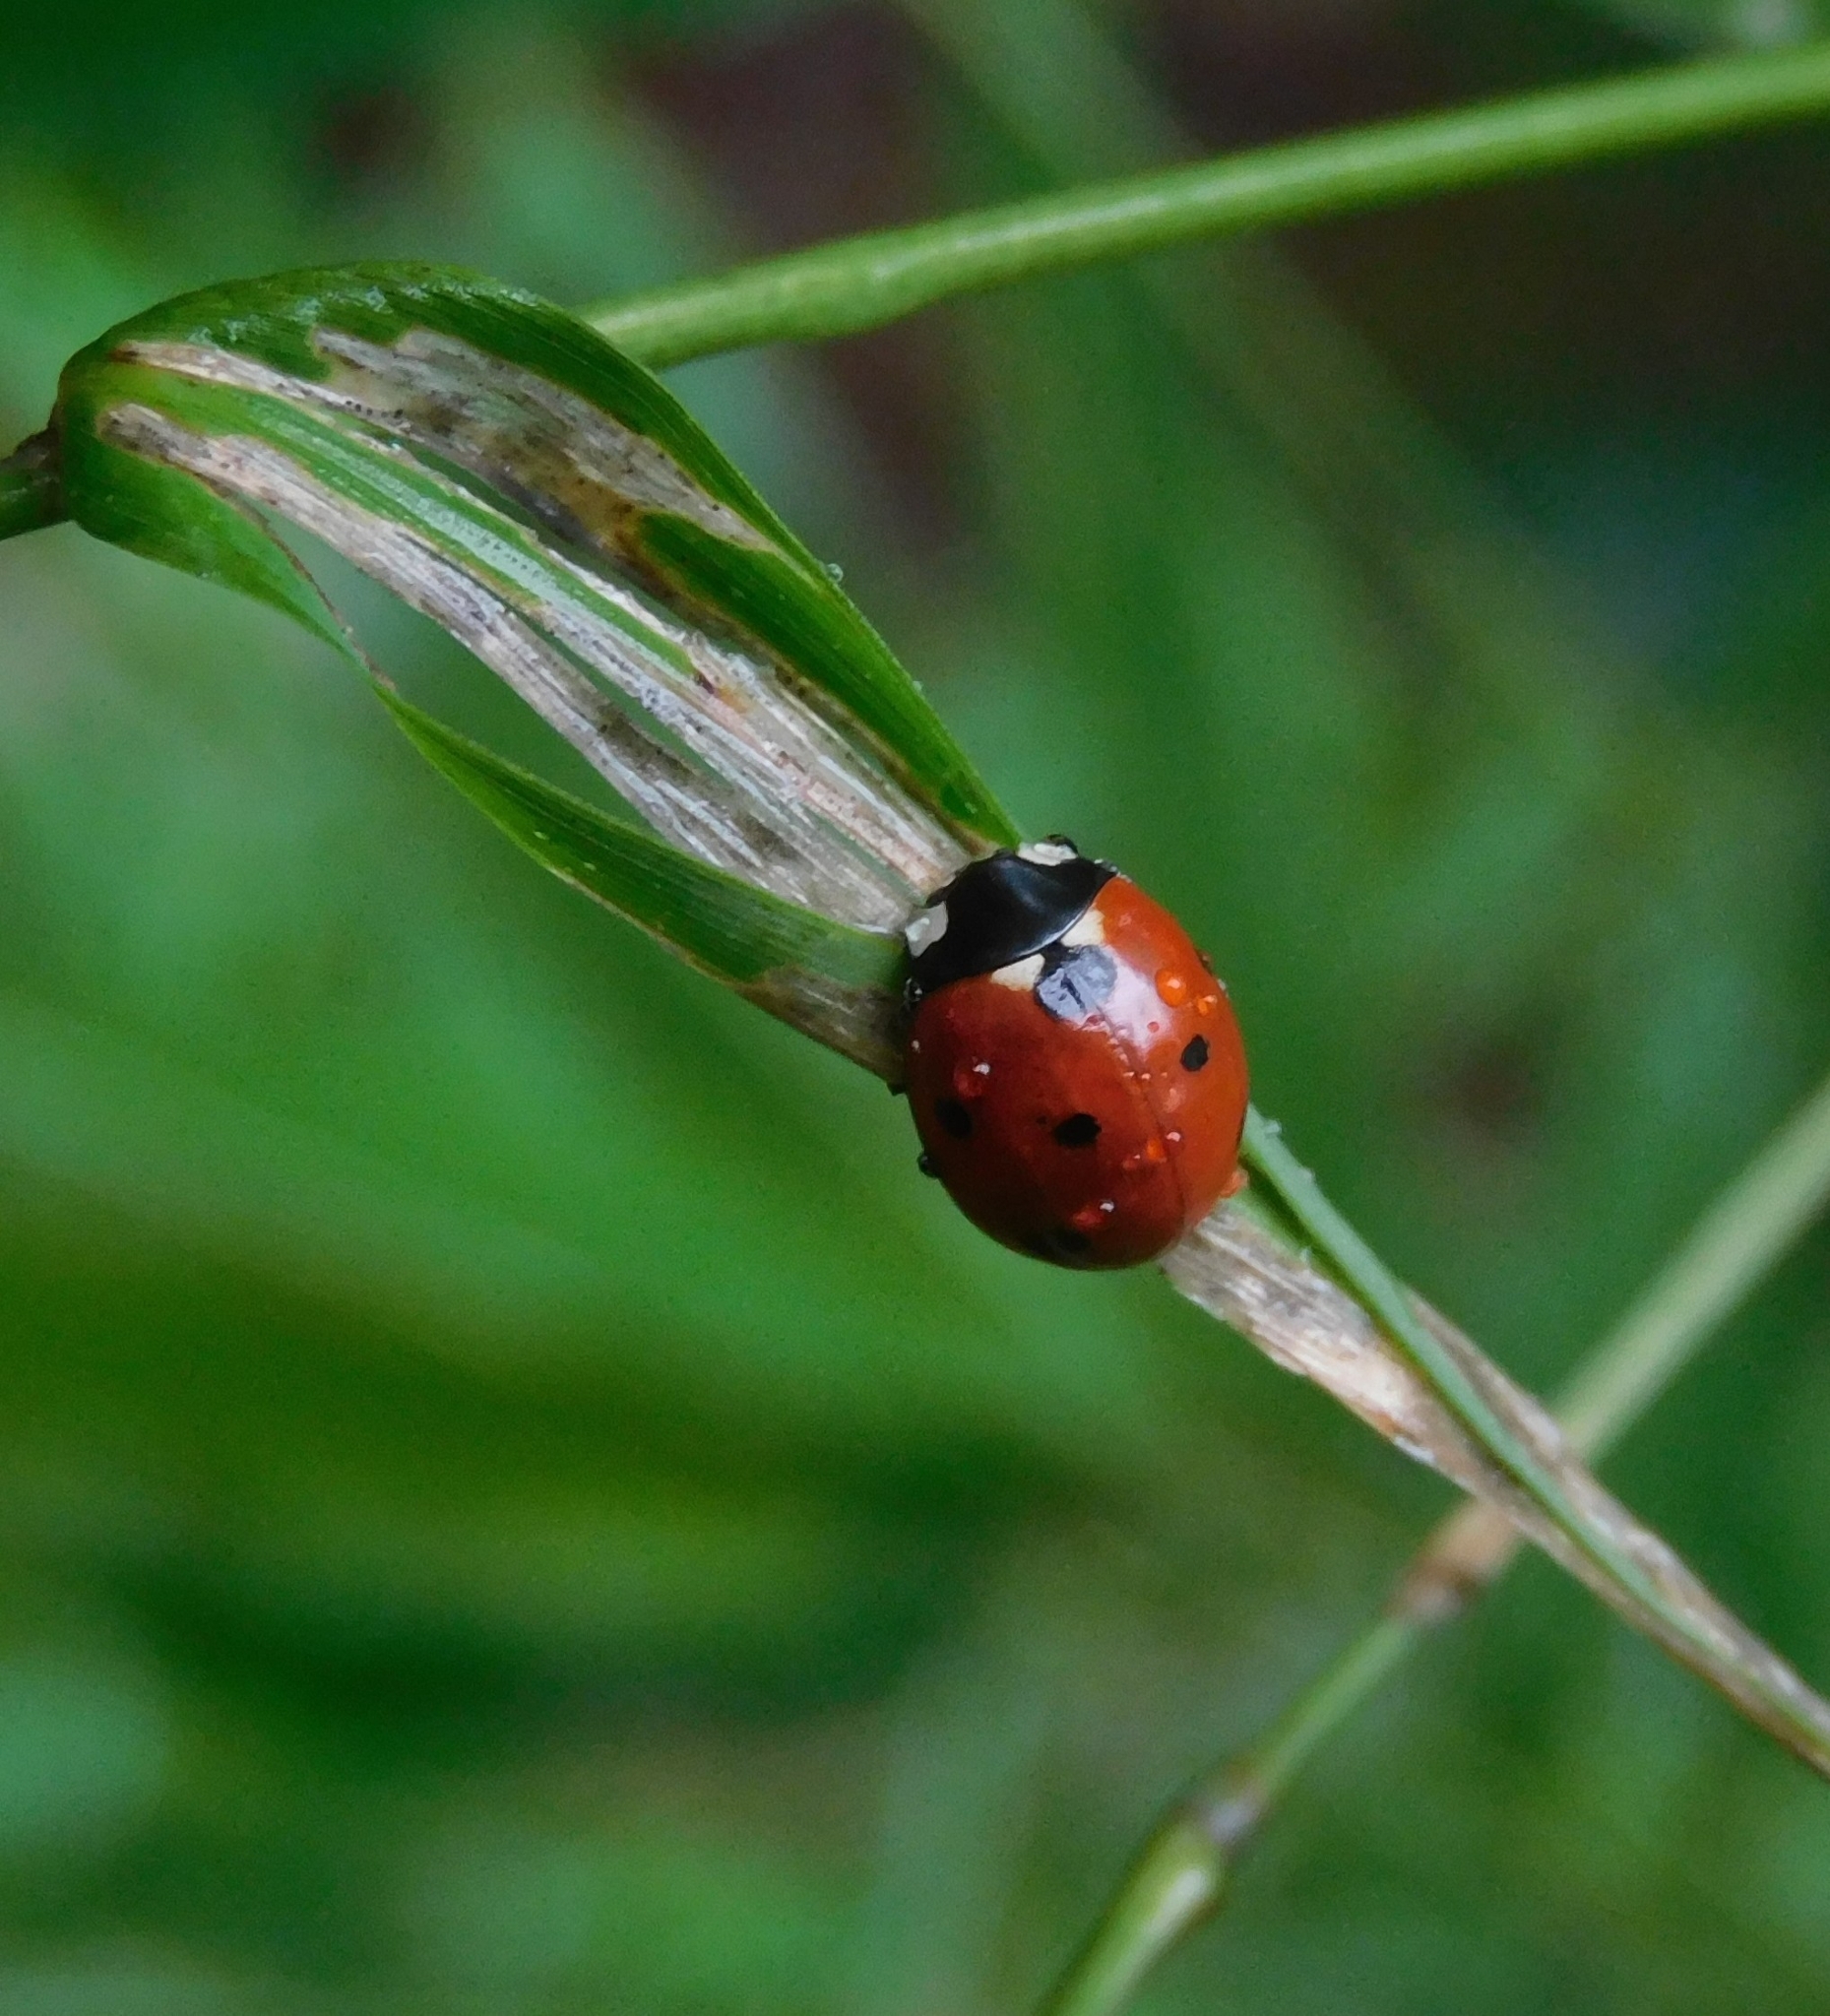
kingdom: Animalia
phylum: Arthropoda
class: Insecta
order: Coleoptera
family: Coccinellidae
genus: Coccinella
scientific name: Coccinella septempunctata
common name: Sevenspotted lady beetle
